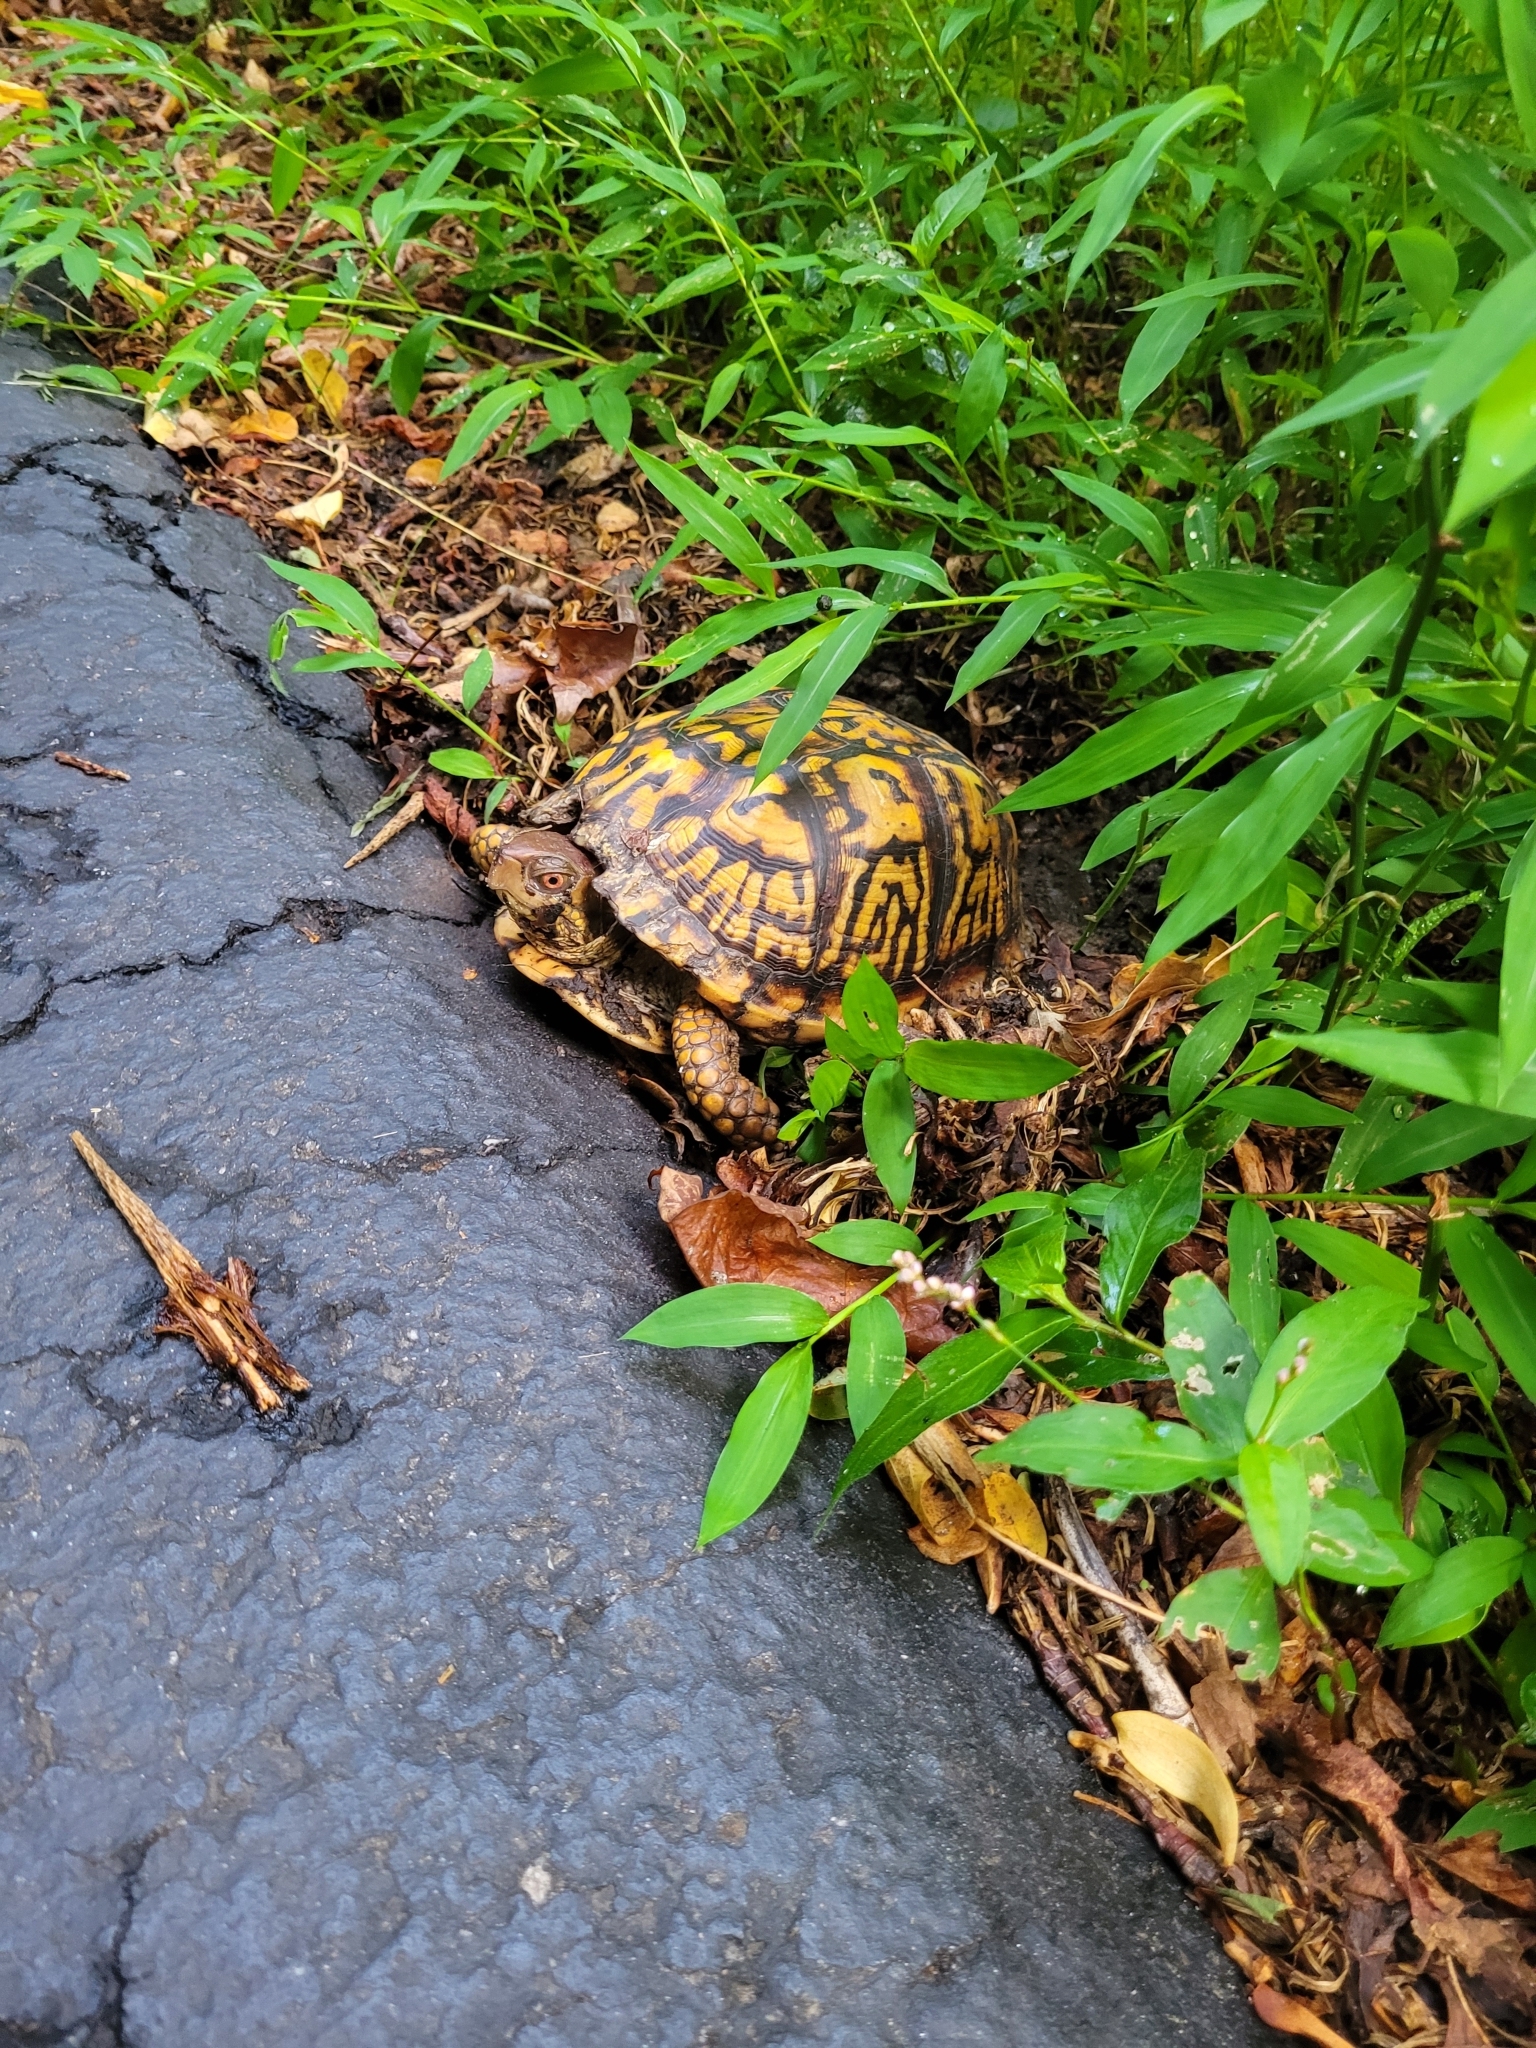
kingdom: Animalia
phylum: Chordata
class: Testudines
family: Emydidae
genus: Terrapene
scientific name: Terrapene carolina
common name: Common box turtle
